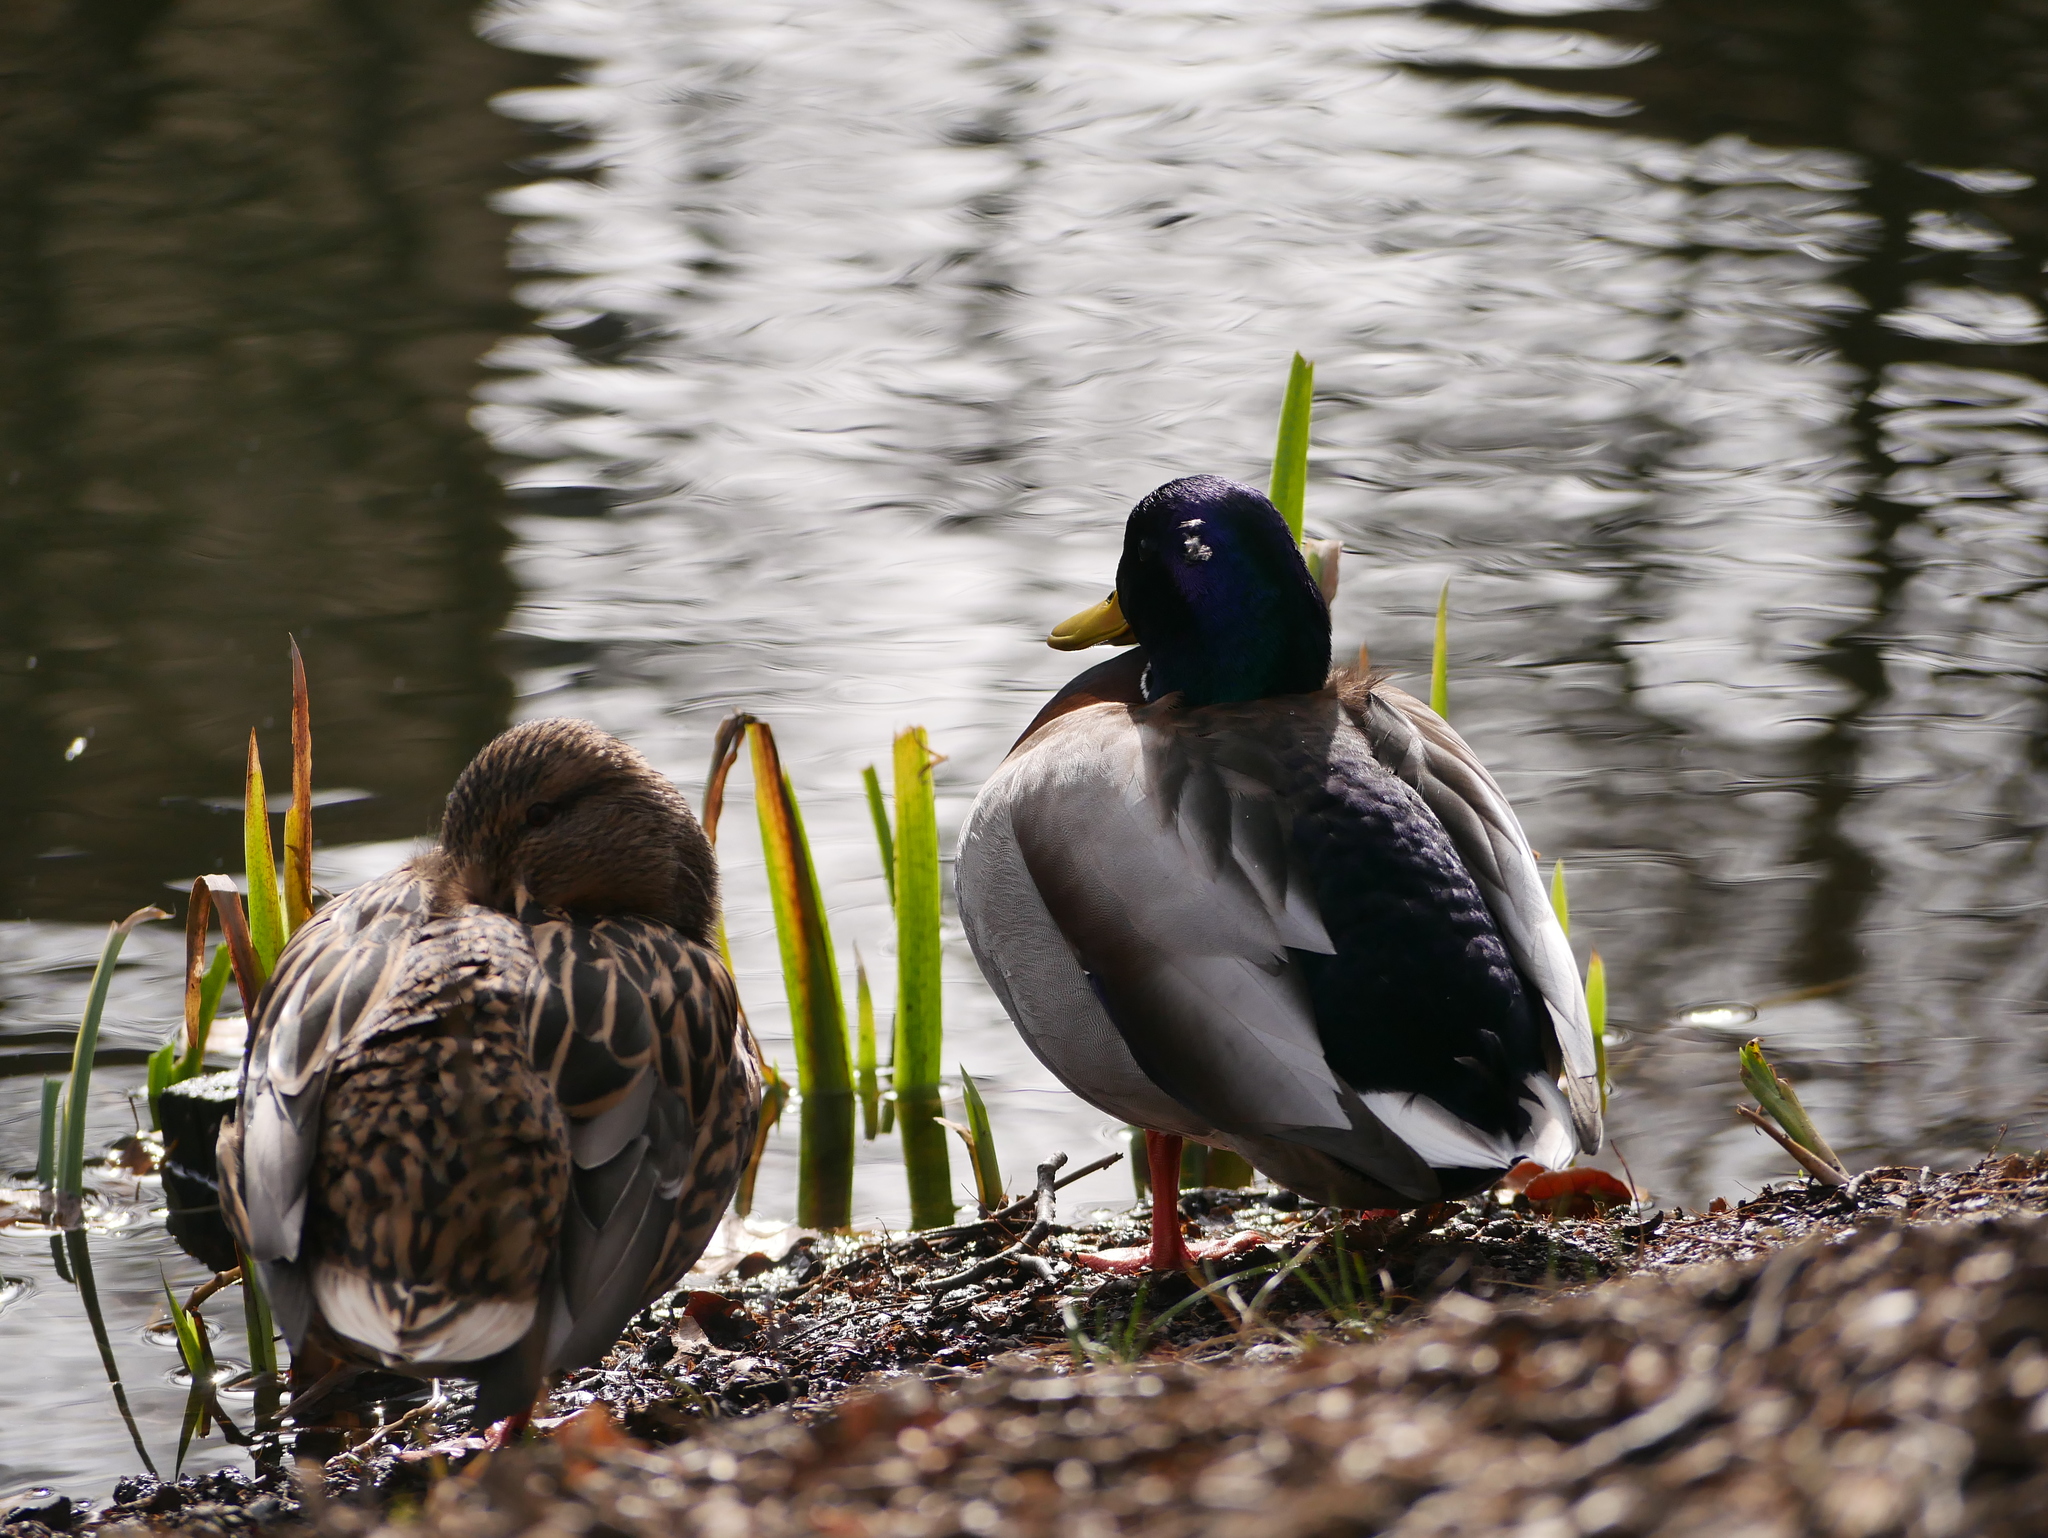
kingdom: Animalia
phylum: Chordata
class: Aves
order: Anseriformes
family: Anatidae
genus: Anas
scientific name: Anas platyrhynchos
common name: Mallard
